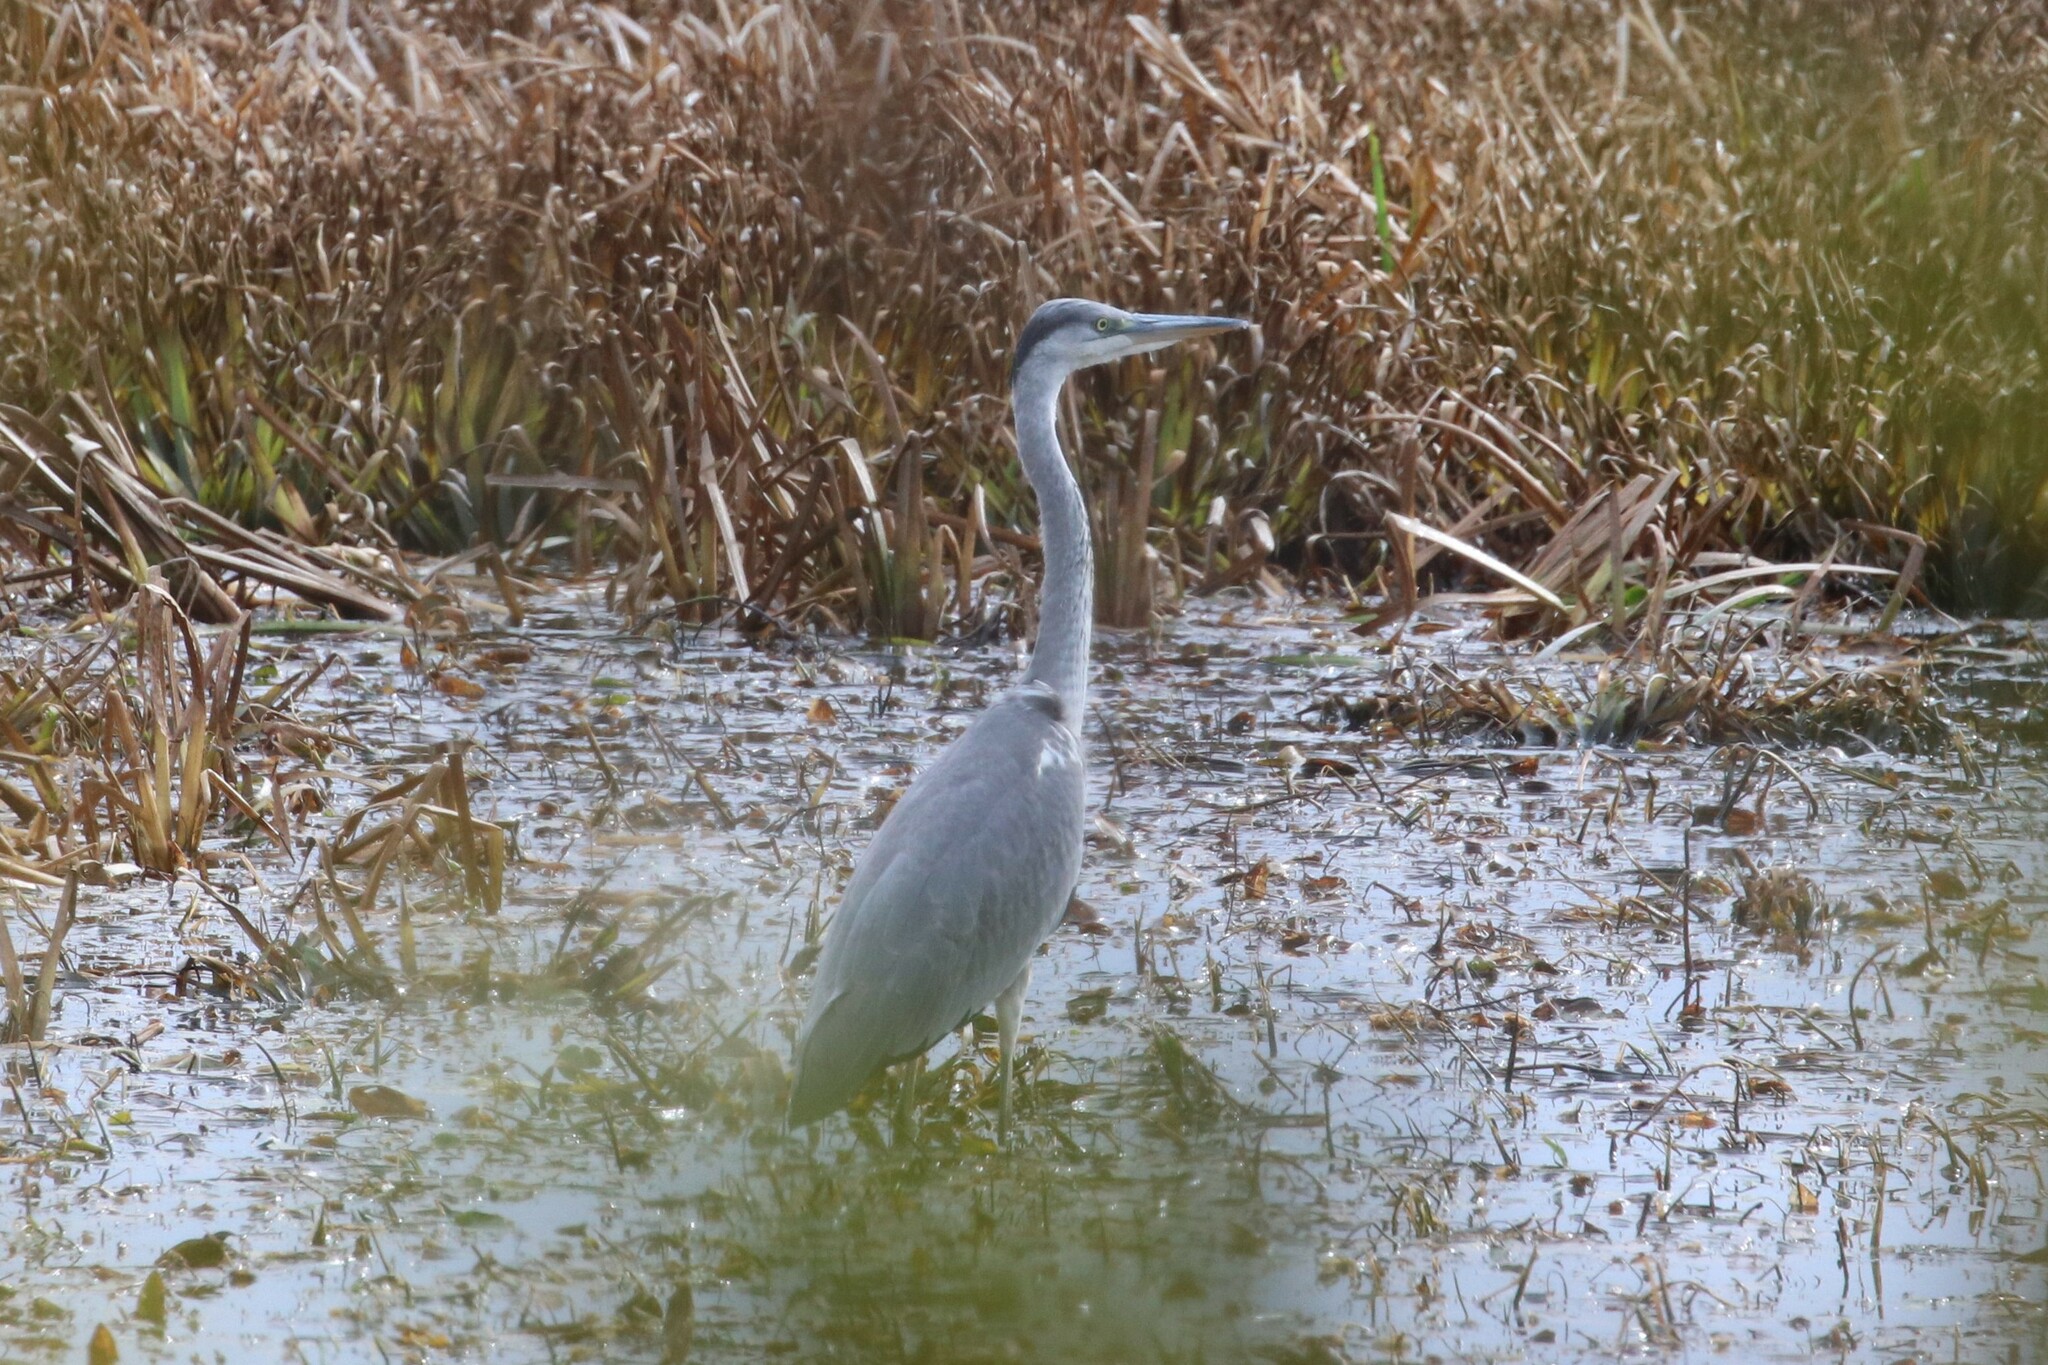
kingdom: Animalia
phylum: Chordata
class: Aves
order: Pelecaniformes
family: Ardeidae
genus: Ardea
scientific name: Ardea cinerea
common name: Grey heron
